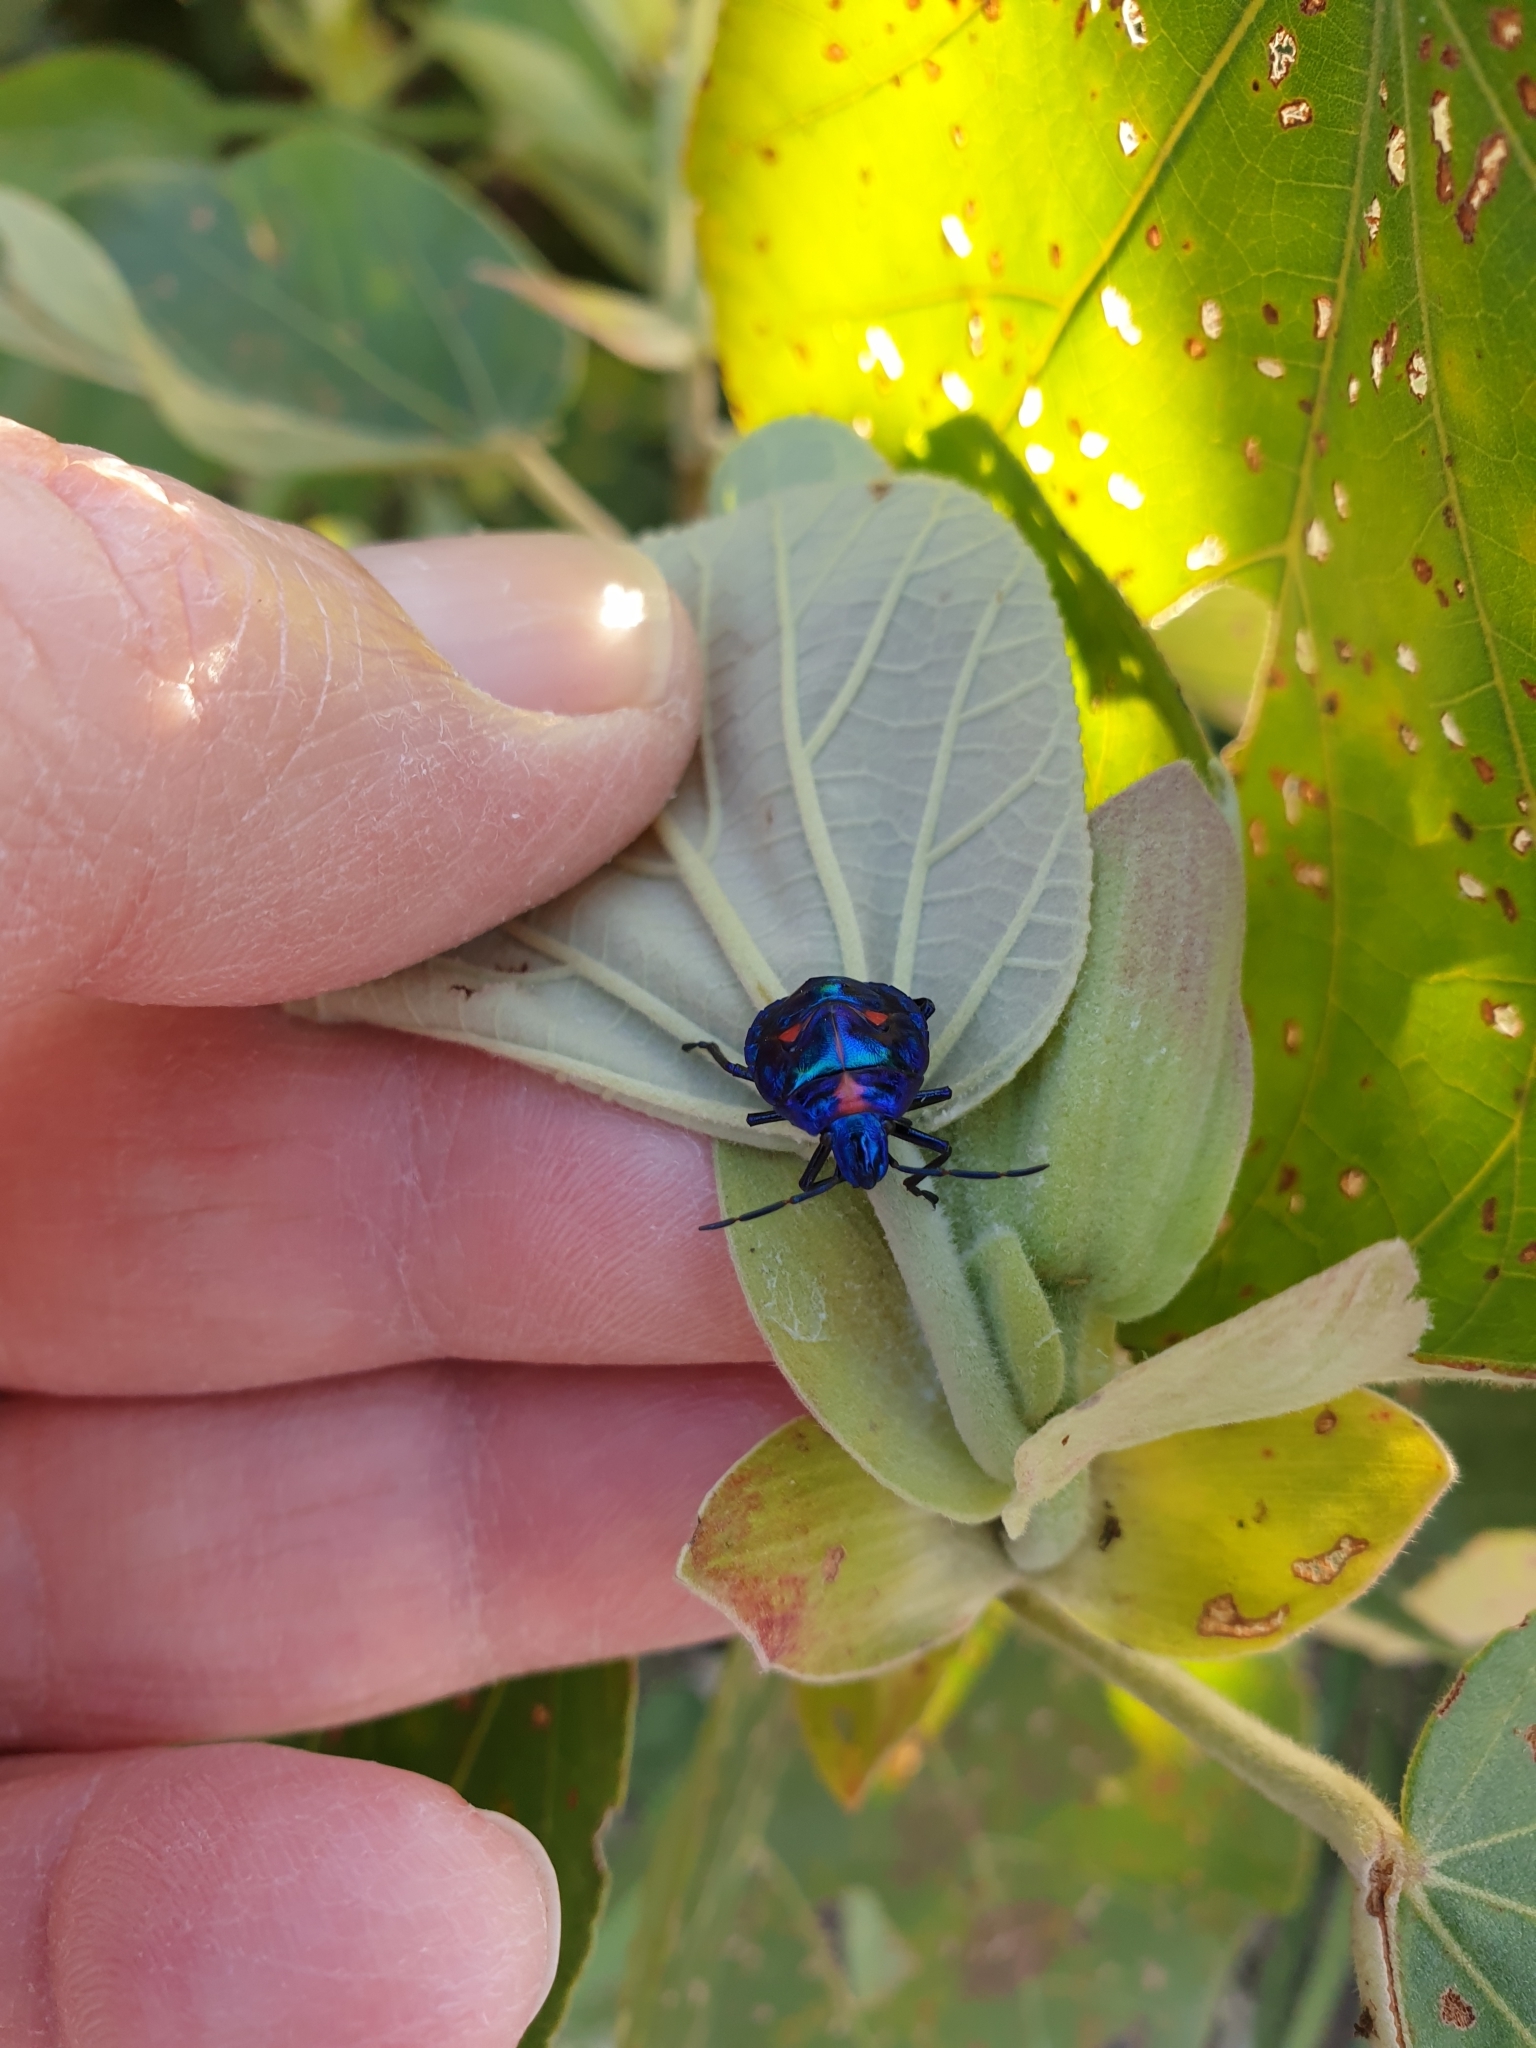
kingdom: Animalia
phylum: Arthropoda
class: Insecta
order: Hemiptera
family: Scutelleridae
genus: Tectocoris
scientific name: Tectocoris diophthalmus
